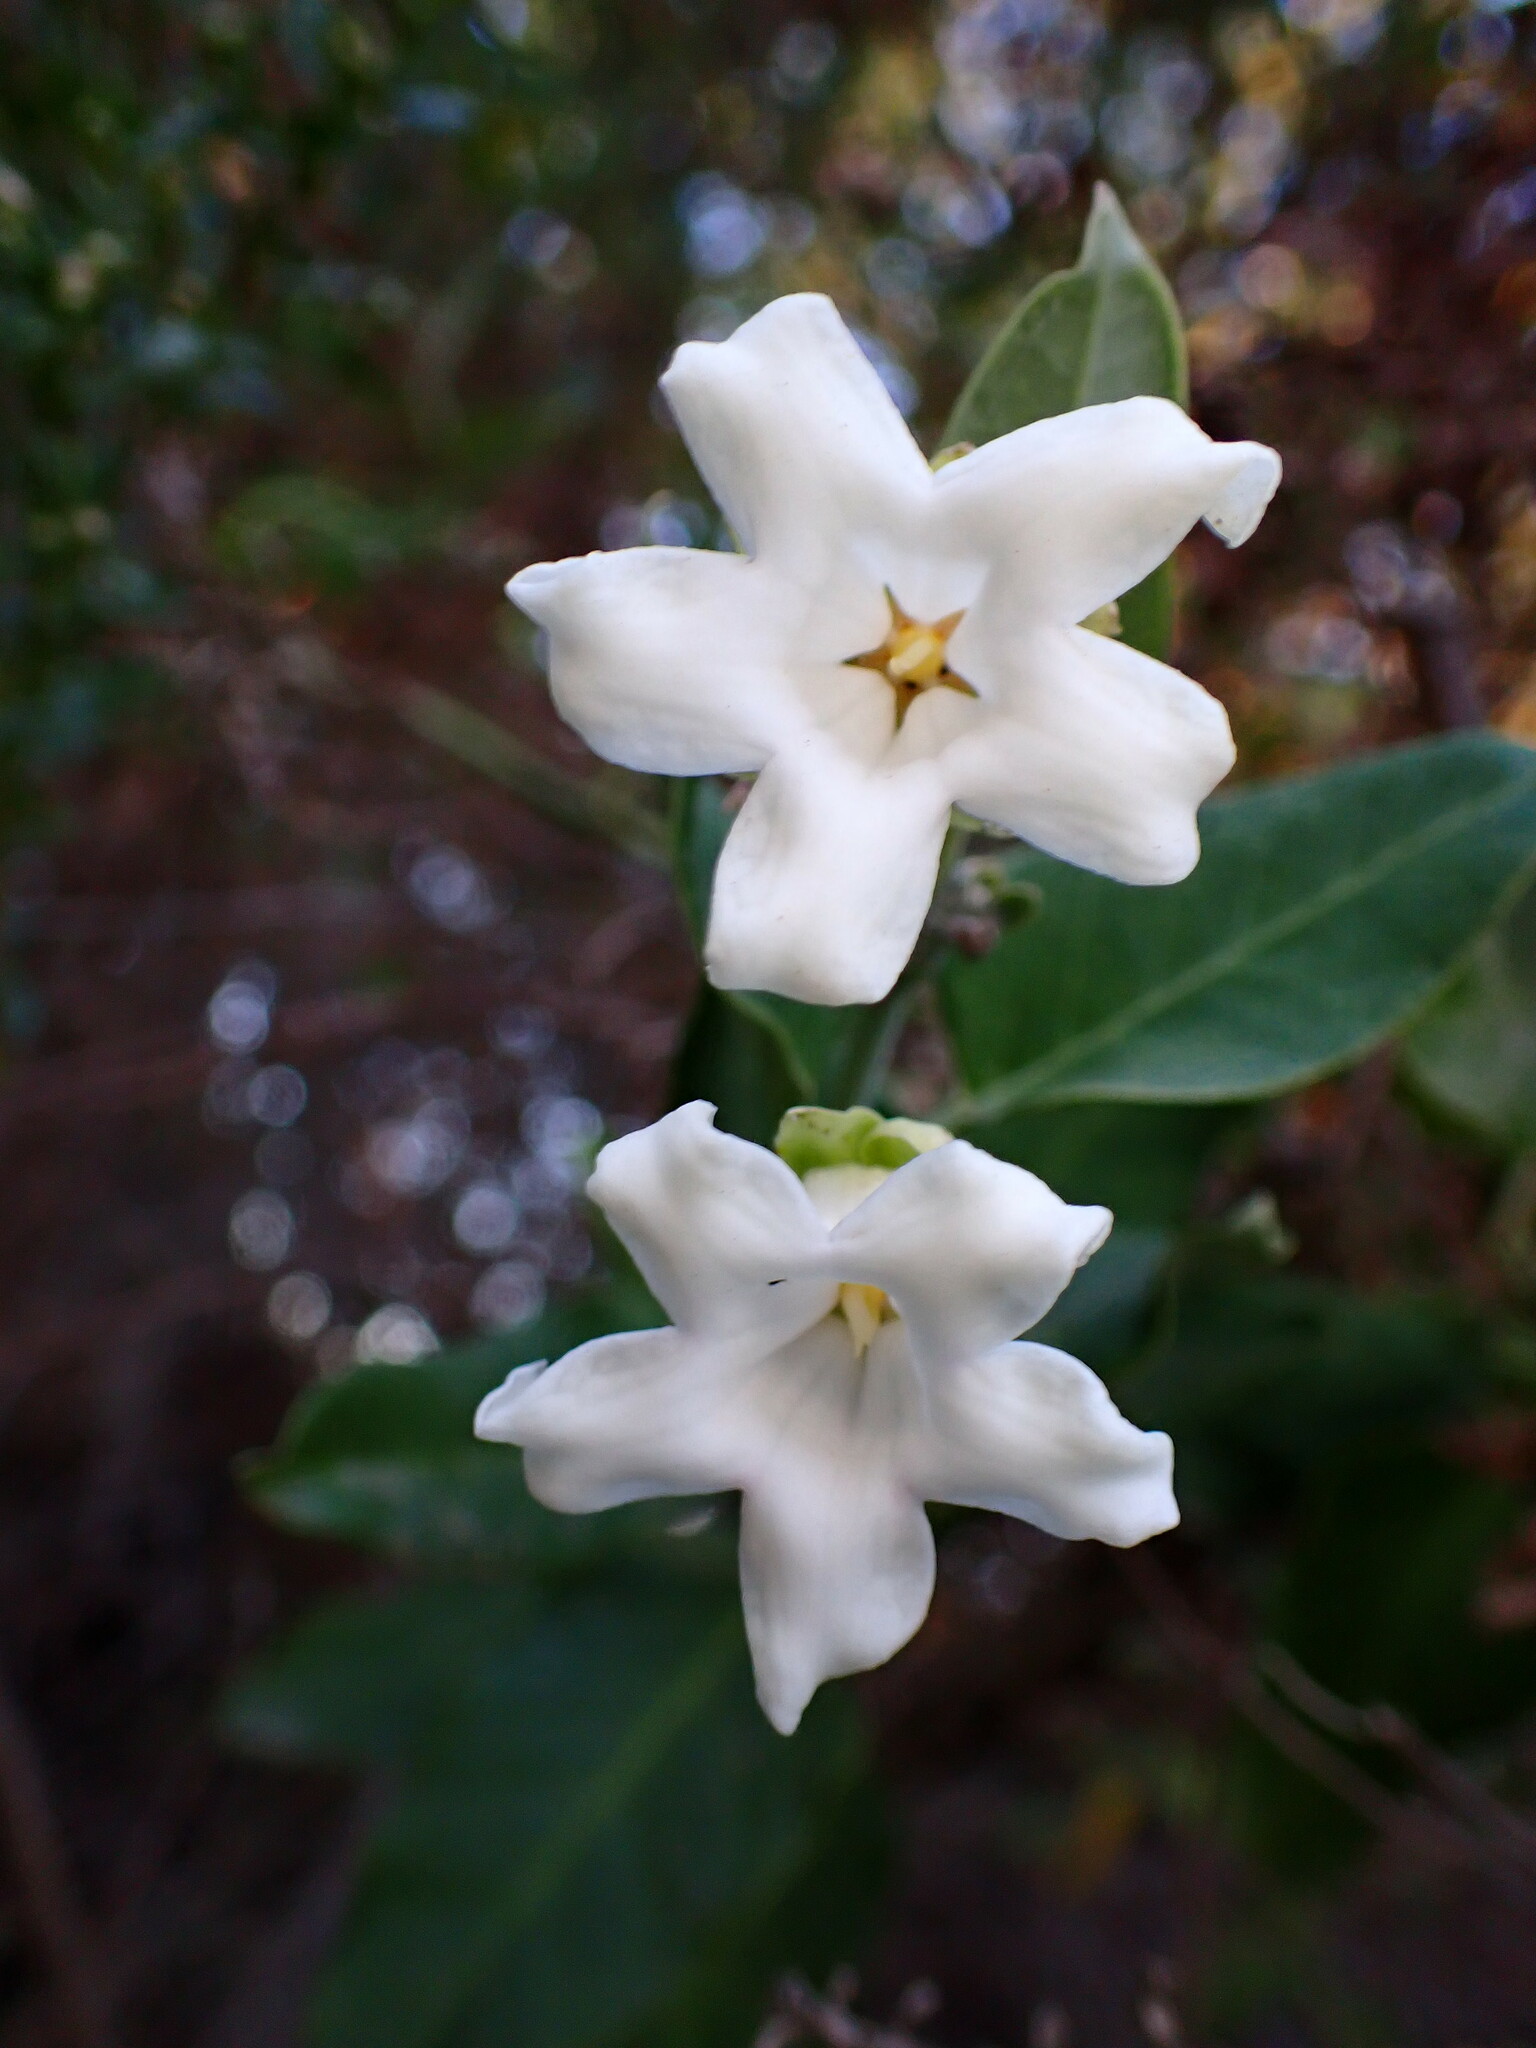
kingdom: Plantae
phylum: Tracheophyta
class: Magnoliopsida
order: Gentianales
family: Apocynaceae
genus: Araujia
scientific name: Araujia sericifera
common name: White bladderflower
